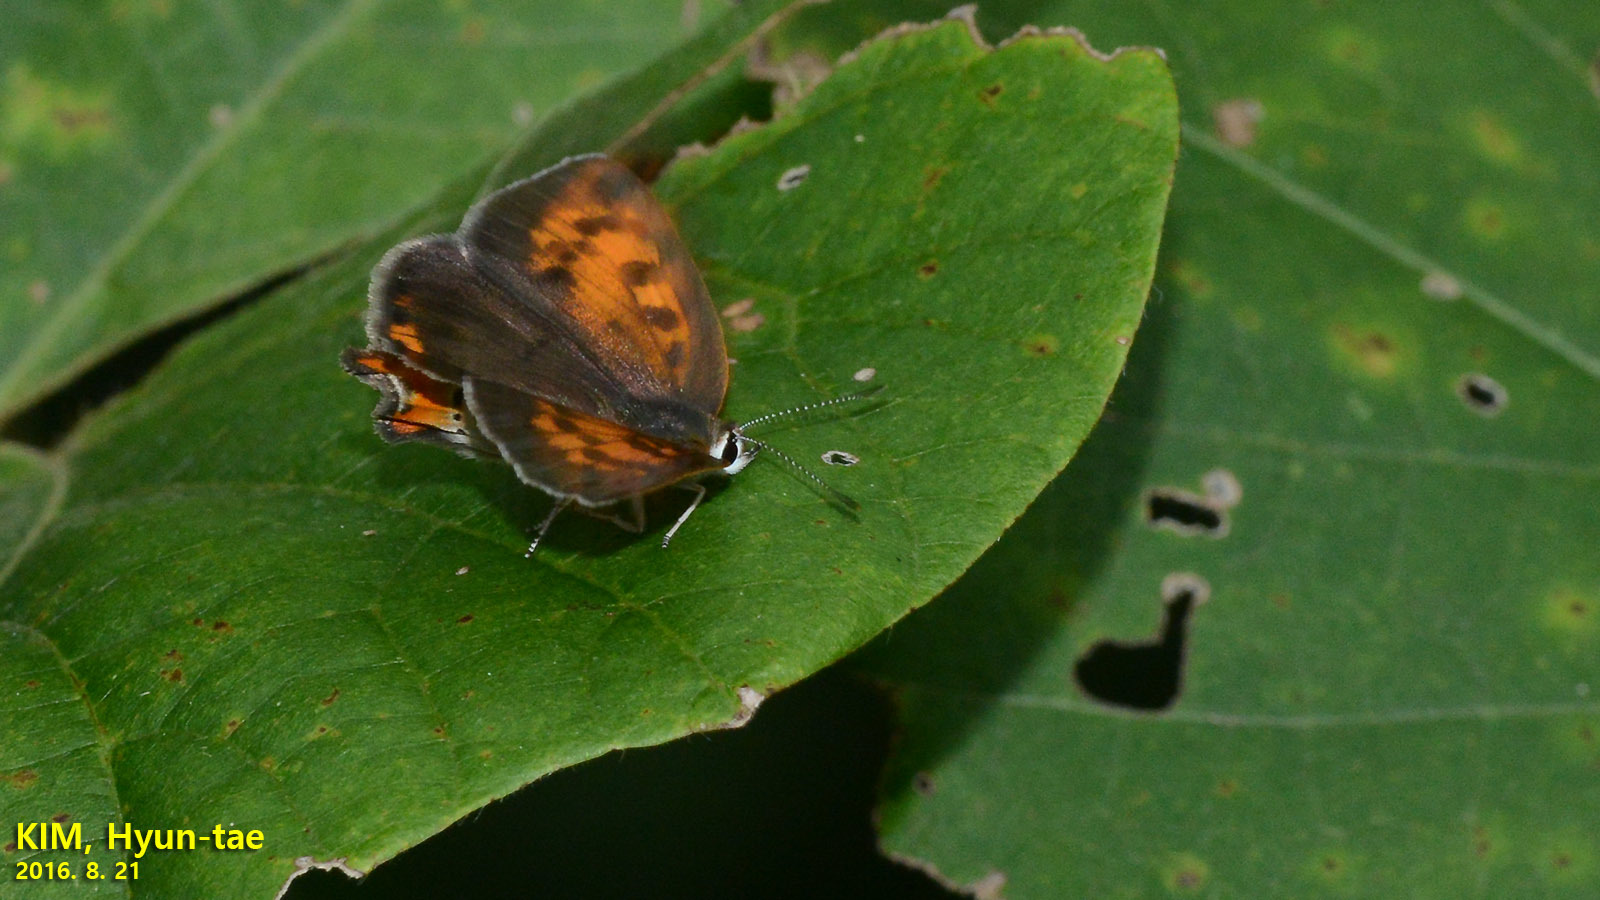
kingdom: Animalia
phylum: Arthropoda
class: Insecta
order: Lepidoptera
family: Lycaenidae
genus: Lycaena
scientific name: Lycaena phlaeas
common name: Small copper
